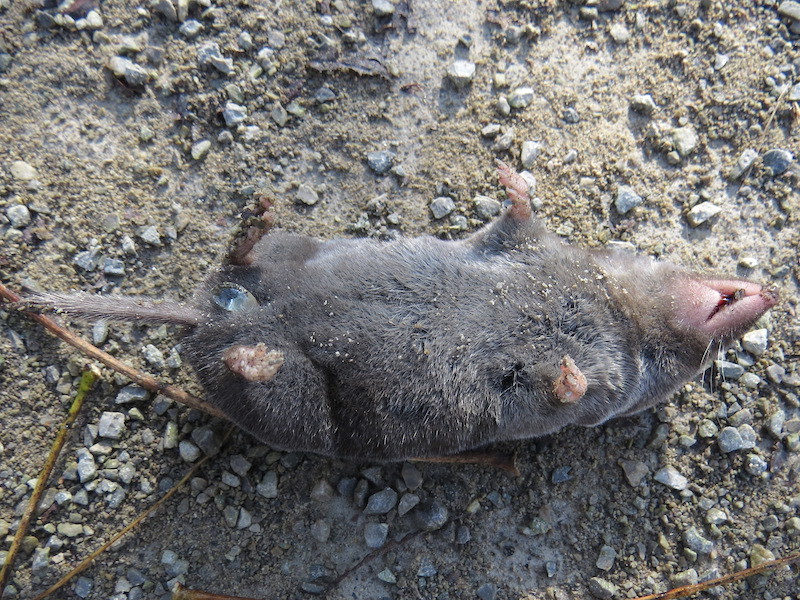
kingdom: Animalia
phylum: Chordata
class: Mammalia
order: Soricomorpha
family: Soricidae
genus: Blarina
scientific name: Blarina brevicauda
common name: Northern short-tailed shrew
